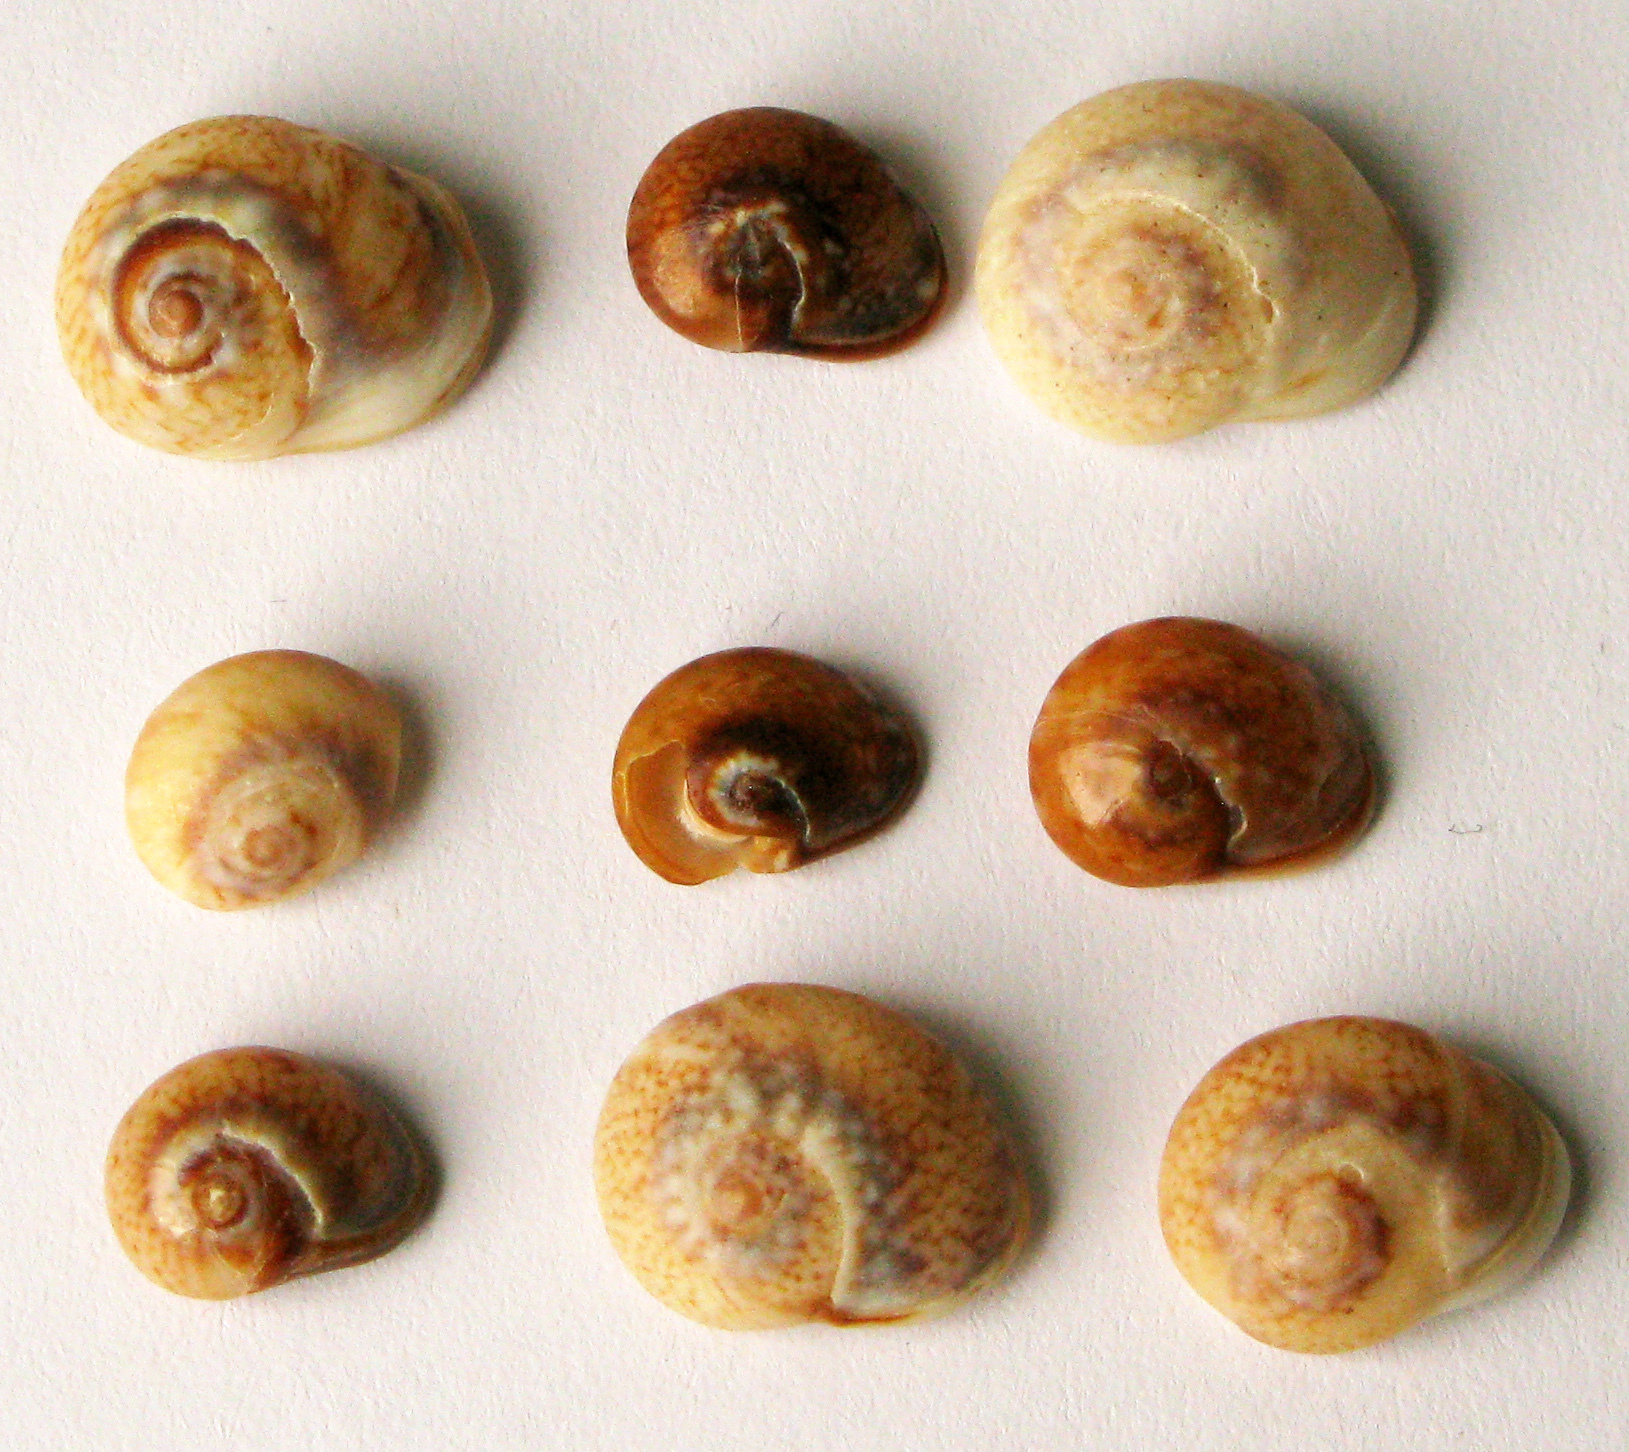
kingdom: Animalia
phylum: Mollusca
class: Gastropoda
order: Neogastropoda
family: Nassariidae
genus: Tritia
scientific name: Tritia pellucida
